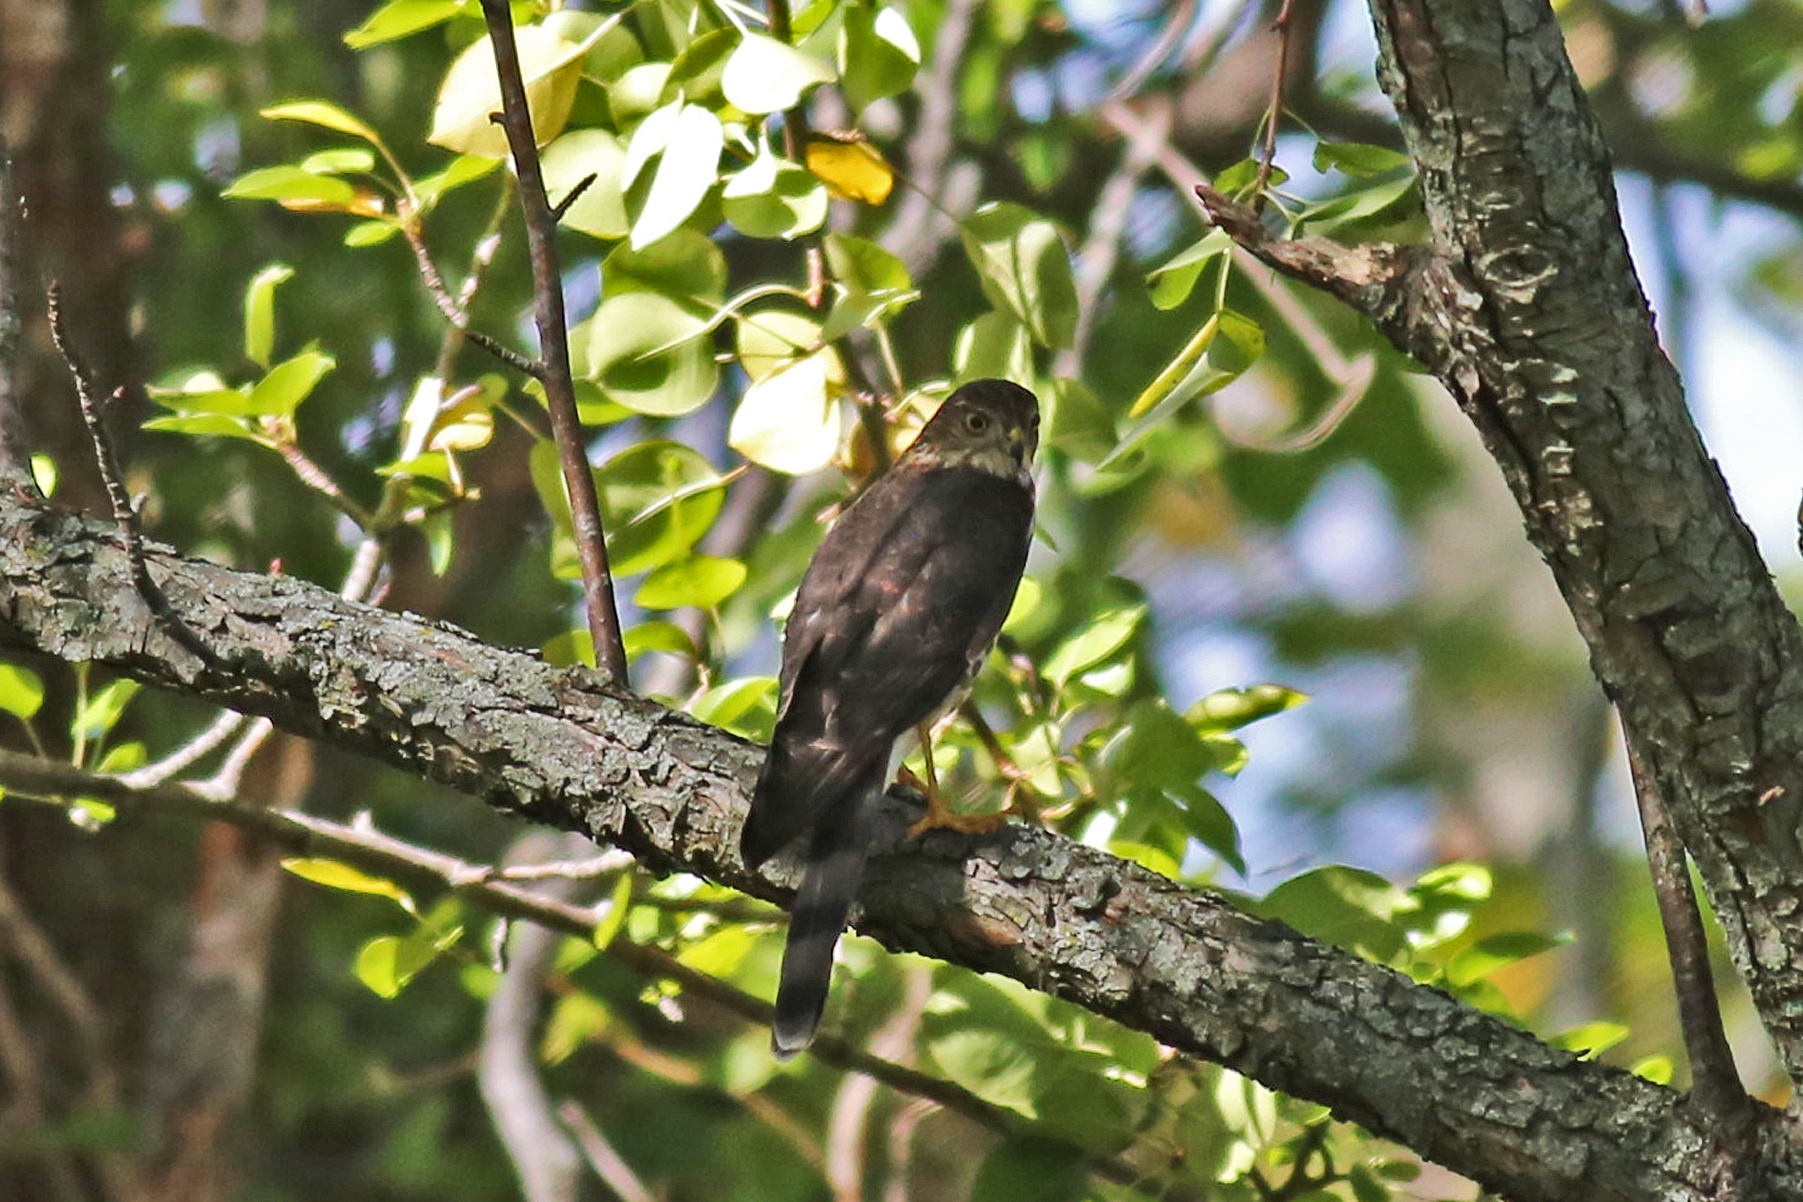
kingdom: Animalia
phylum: Chordata
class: Aves
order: Accipitriformes
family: Accipitridae
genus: Accipiter
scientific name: Accipiter striatus
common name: Sharp-shinned hawk
